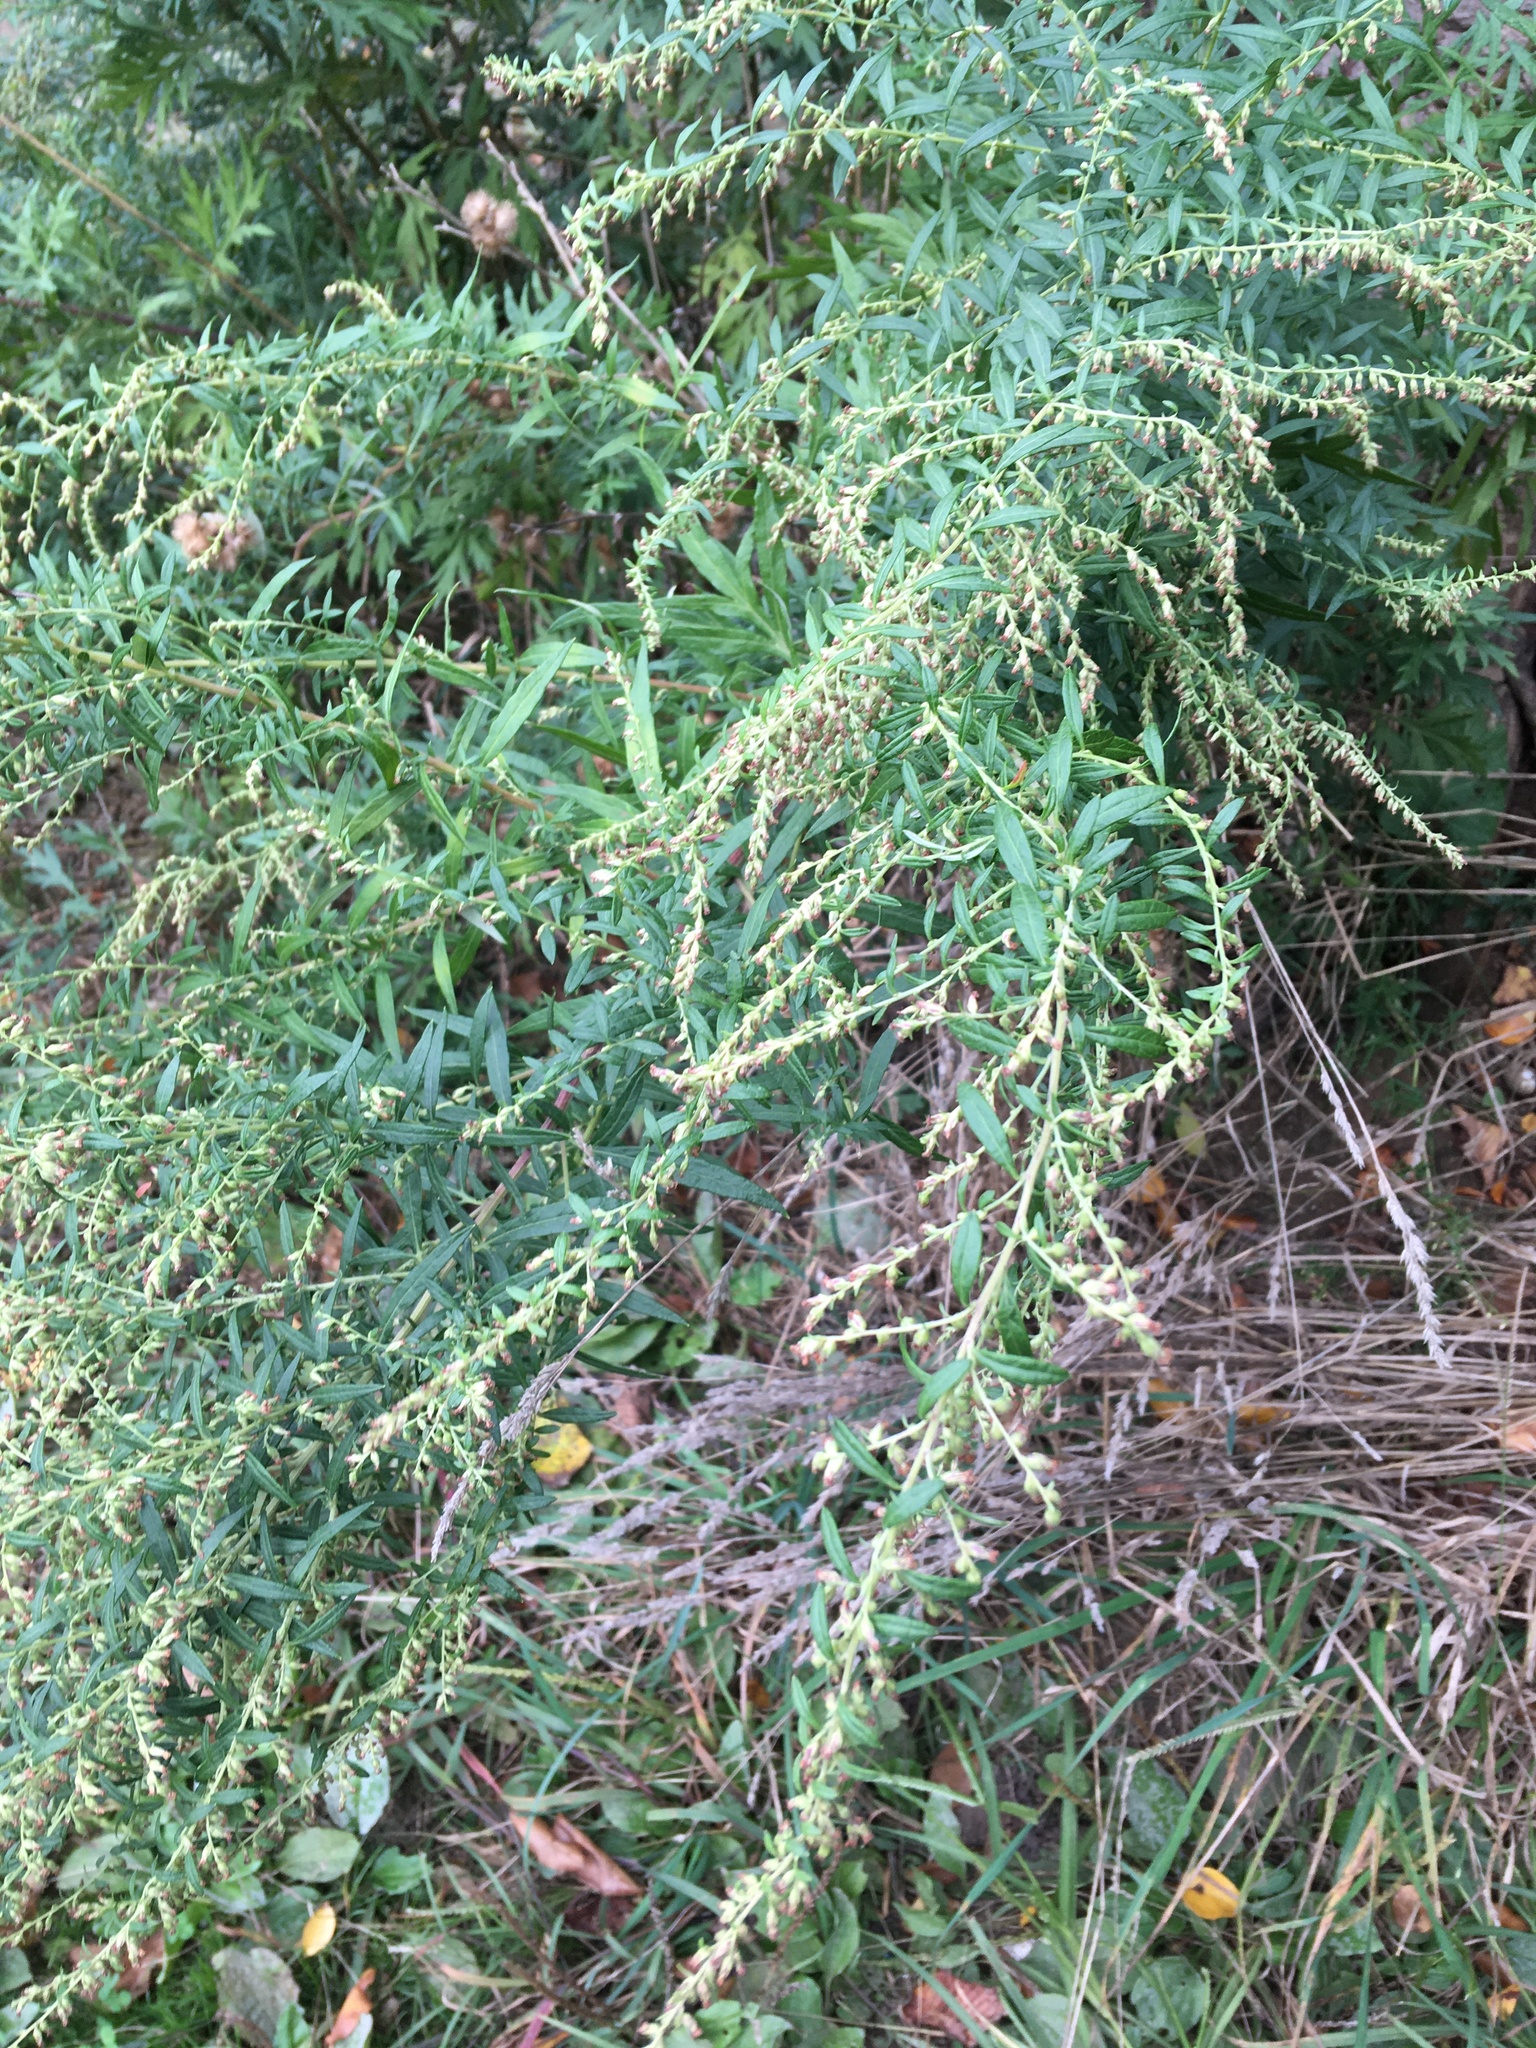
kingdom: Plantae
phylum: Tracheophyta
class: Magnoliopsida
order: Asterales
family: Asteraceae
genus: Artemisia
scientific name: Artemisia vulgaris
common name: Mugwort
